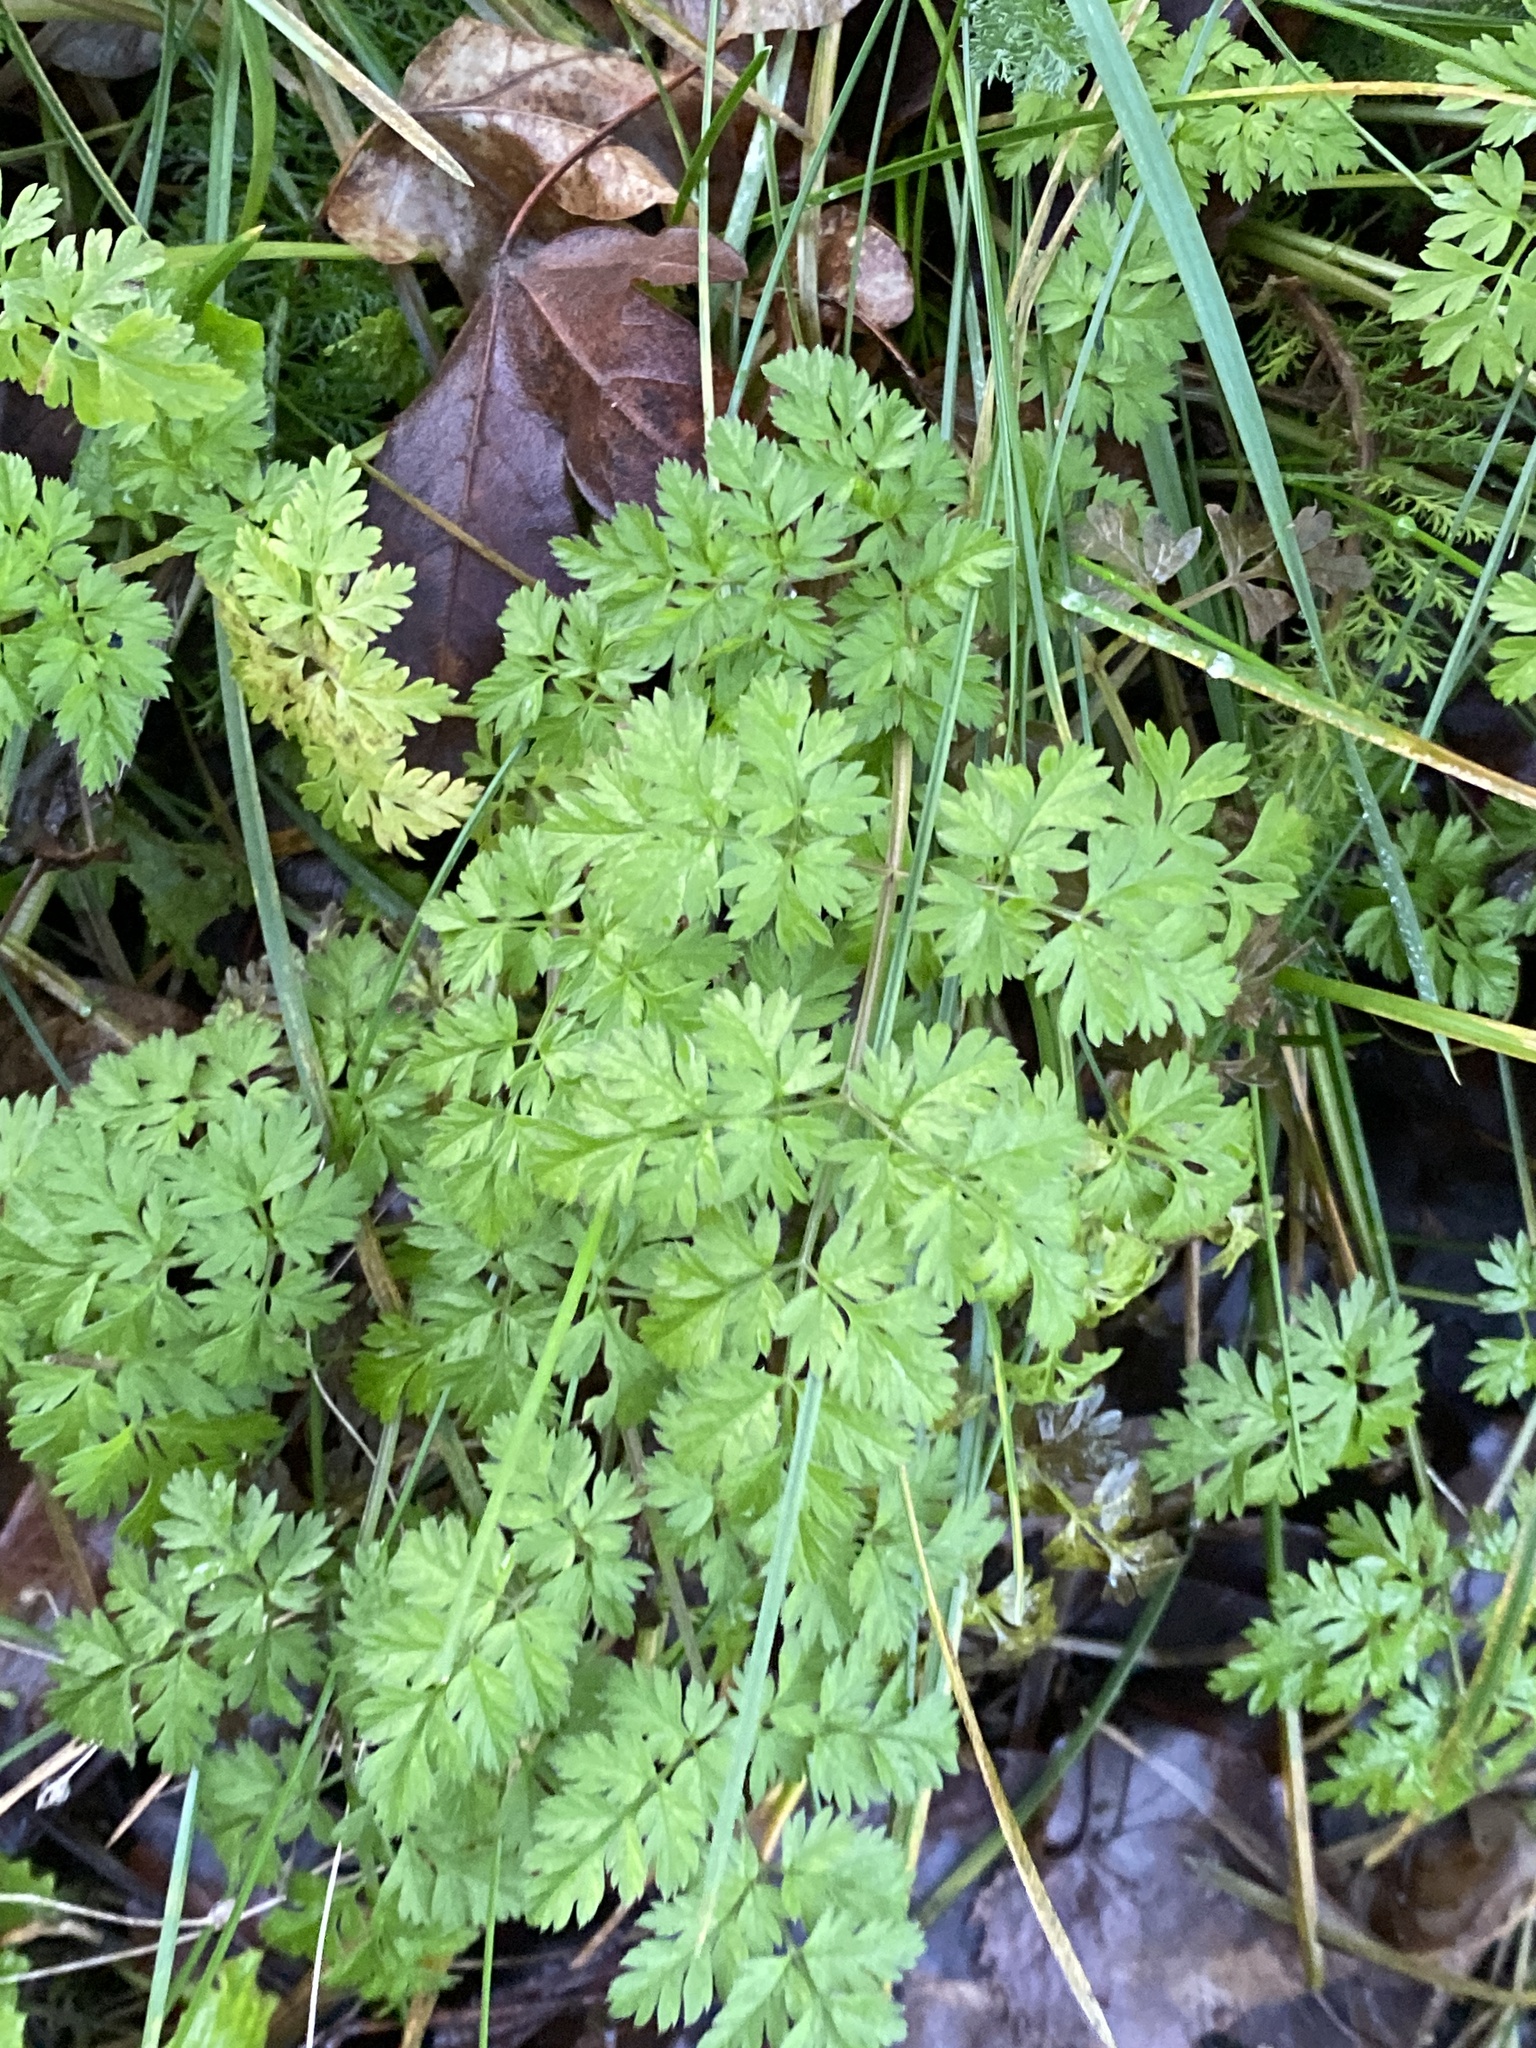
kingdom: Plantae
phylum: Tracheophyta
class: Magnoliopsida
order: Apiales
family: Apiaceae
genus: Anthriscus
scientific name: Anthriscus sylvestris
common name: Cow parsley
